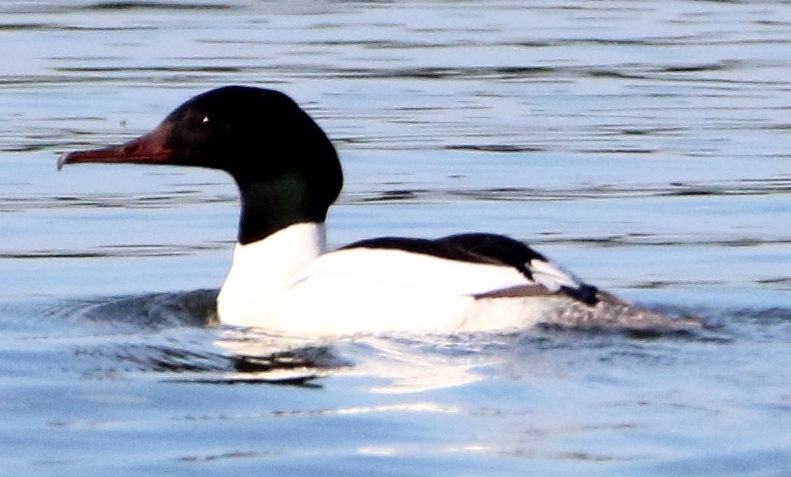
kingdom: Animalia
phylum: Chordata
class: Aves
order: Anseriformes
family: Anatidae
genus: Mergus
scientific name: Mergus merganser
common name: Common merganser
